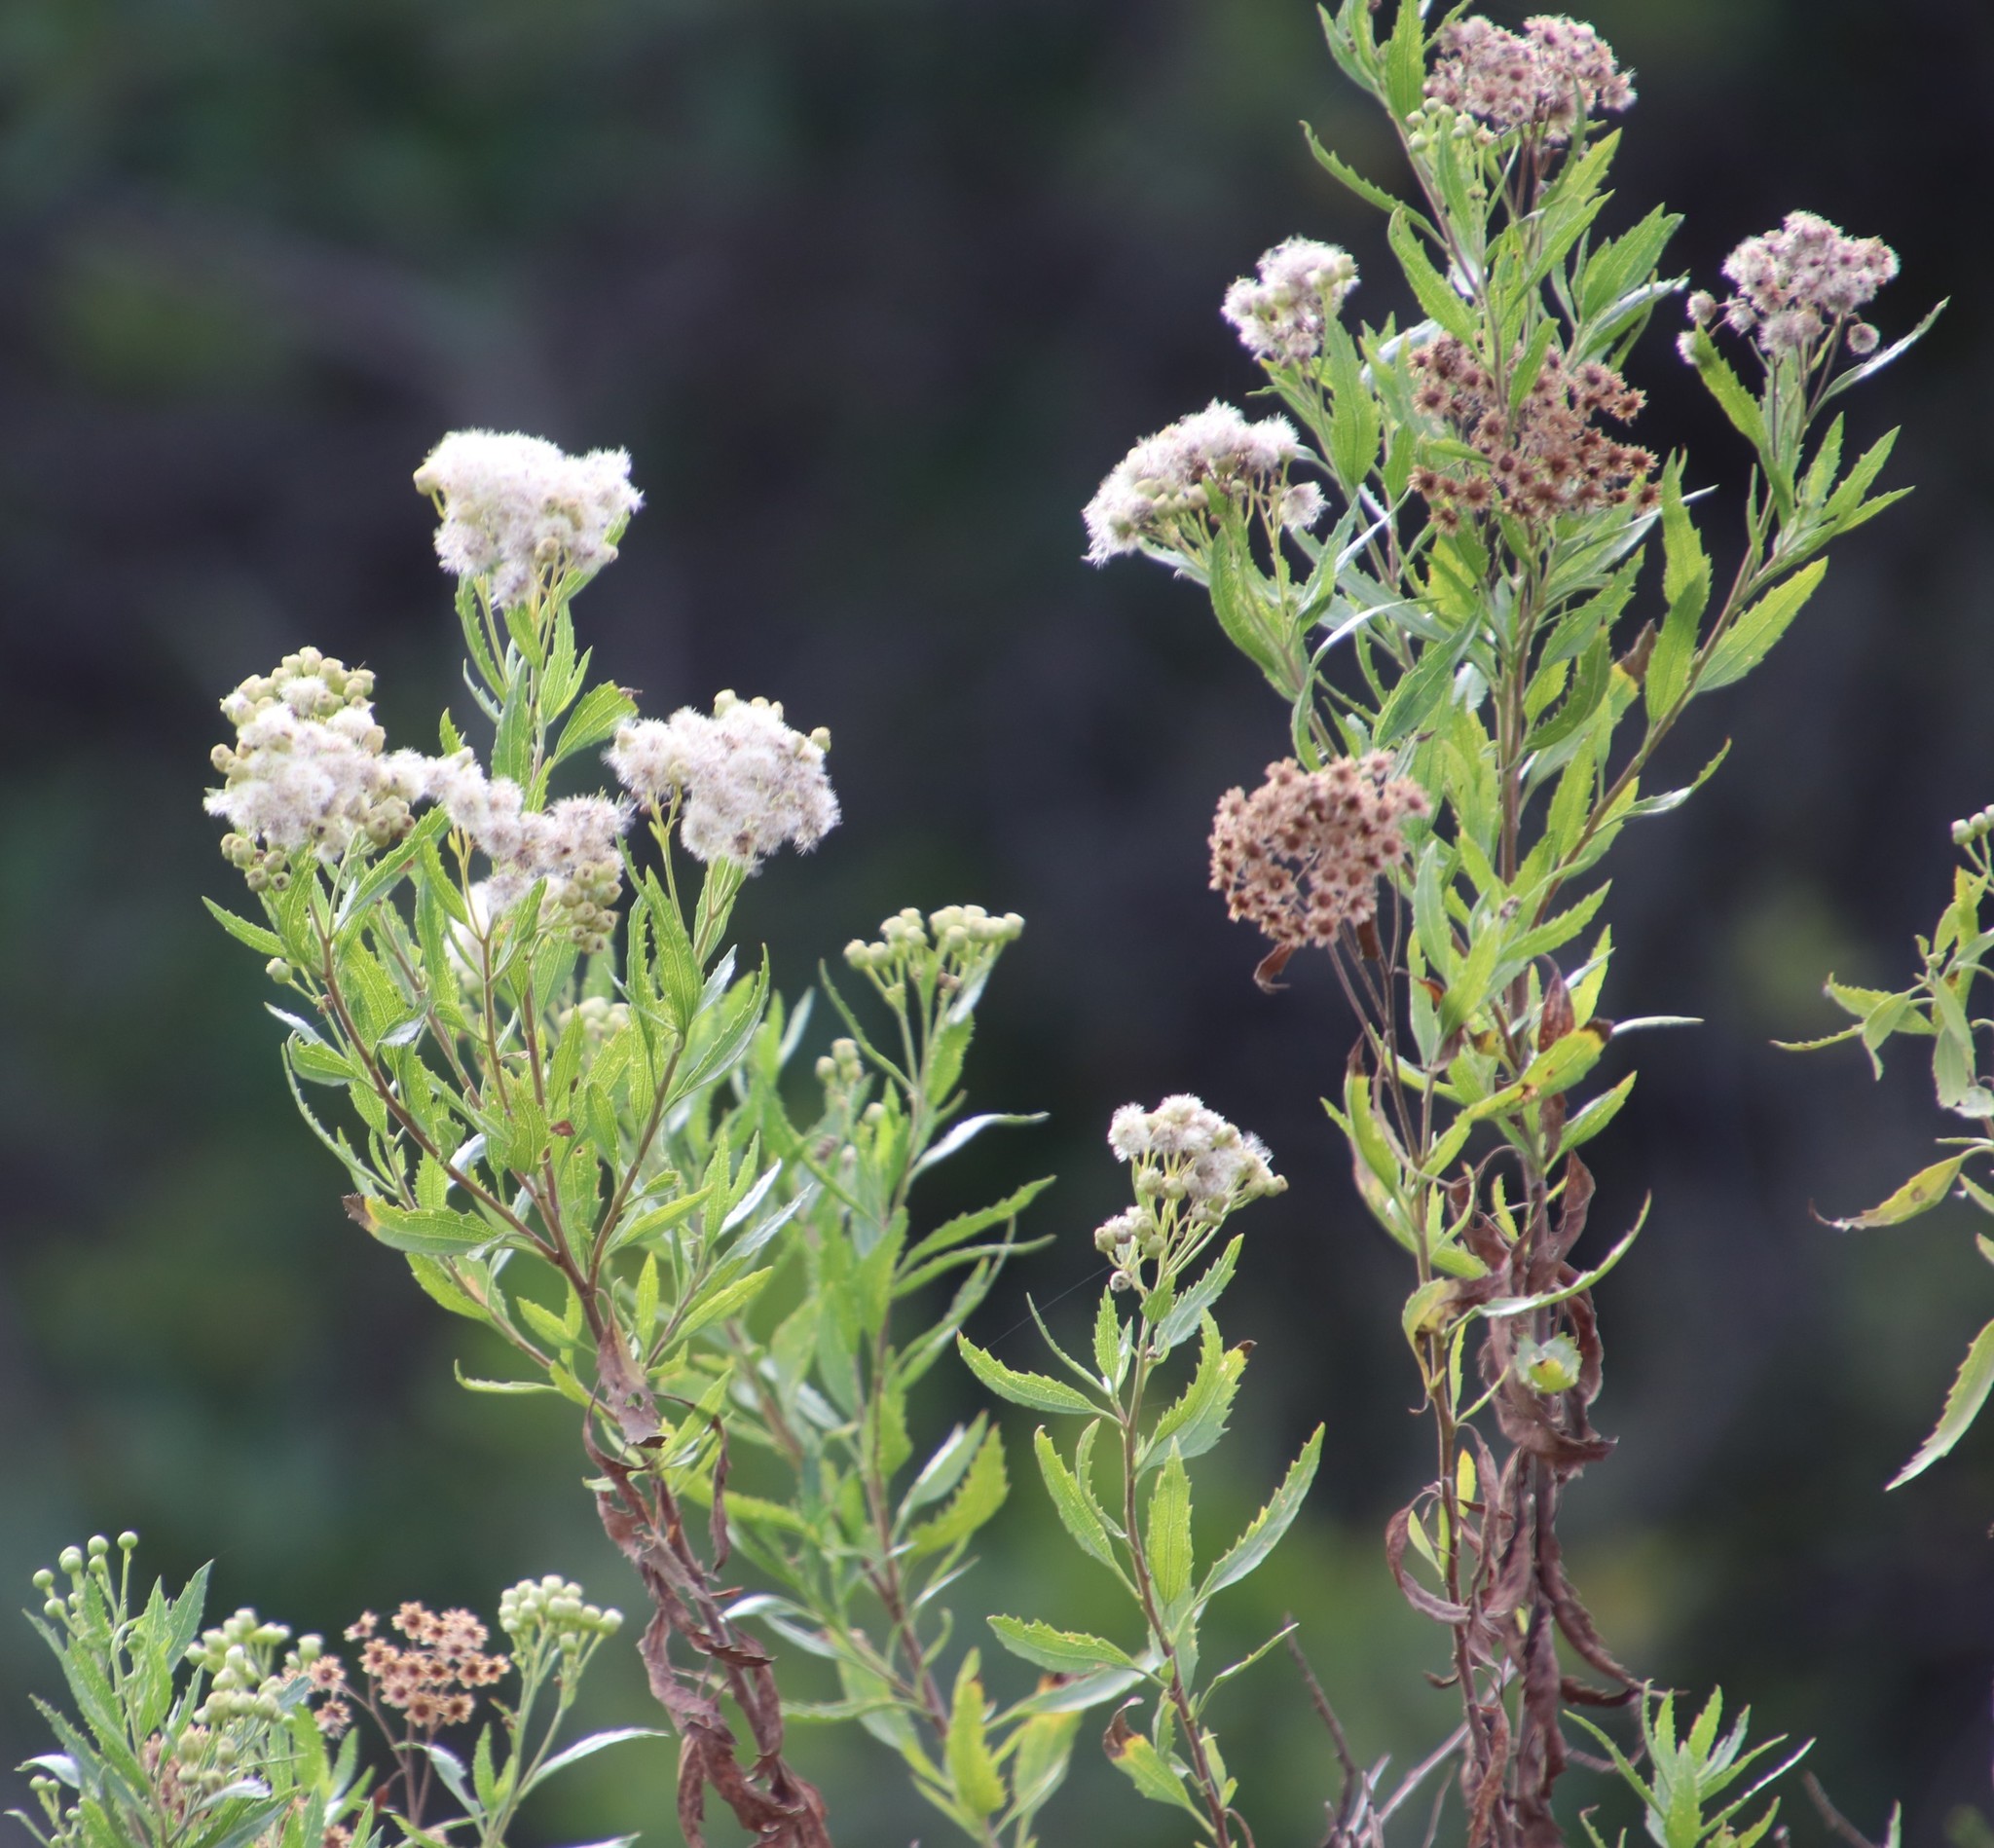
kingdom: Plantae
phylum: Tracheophyta
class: Magnoliopsida
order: Asterales
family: Asteraceae
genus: Nidorella
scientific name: Nidorella ivifolia
